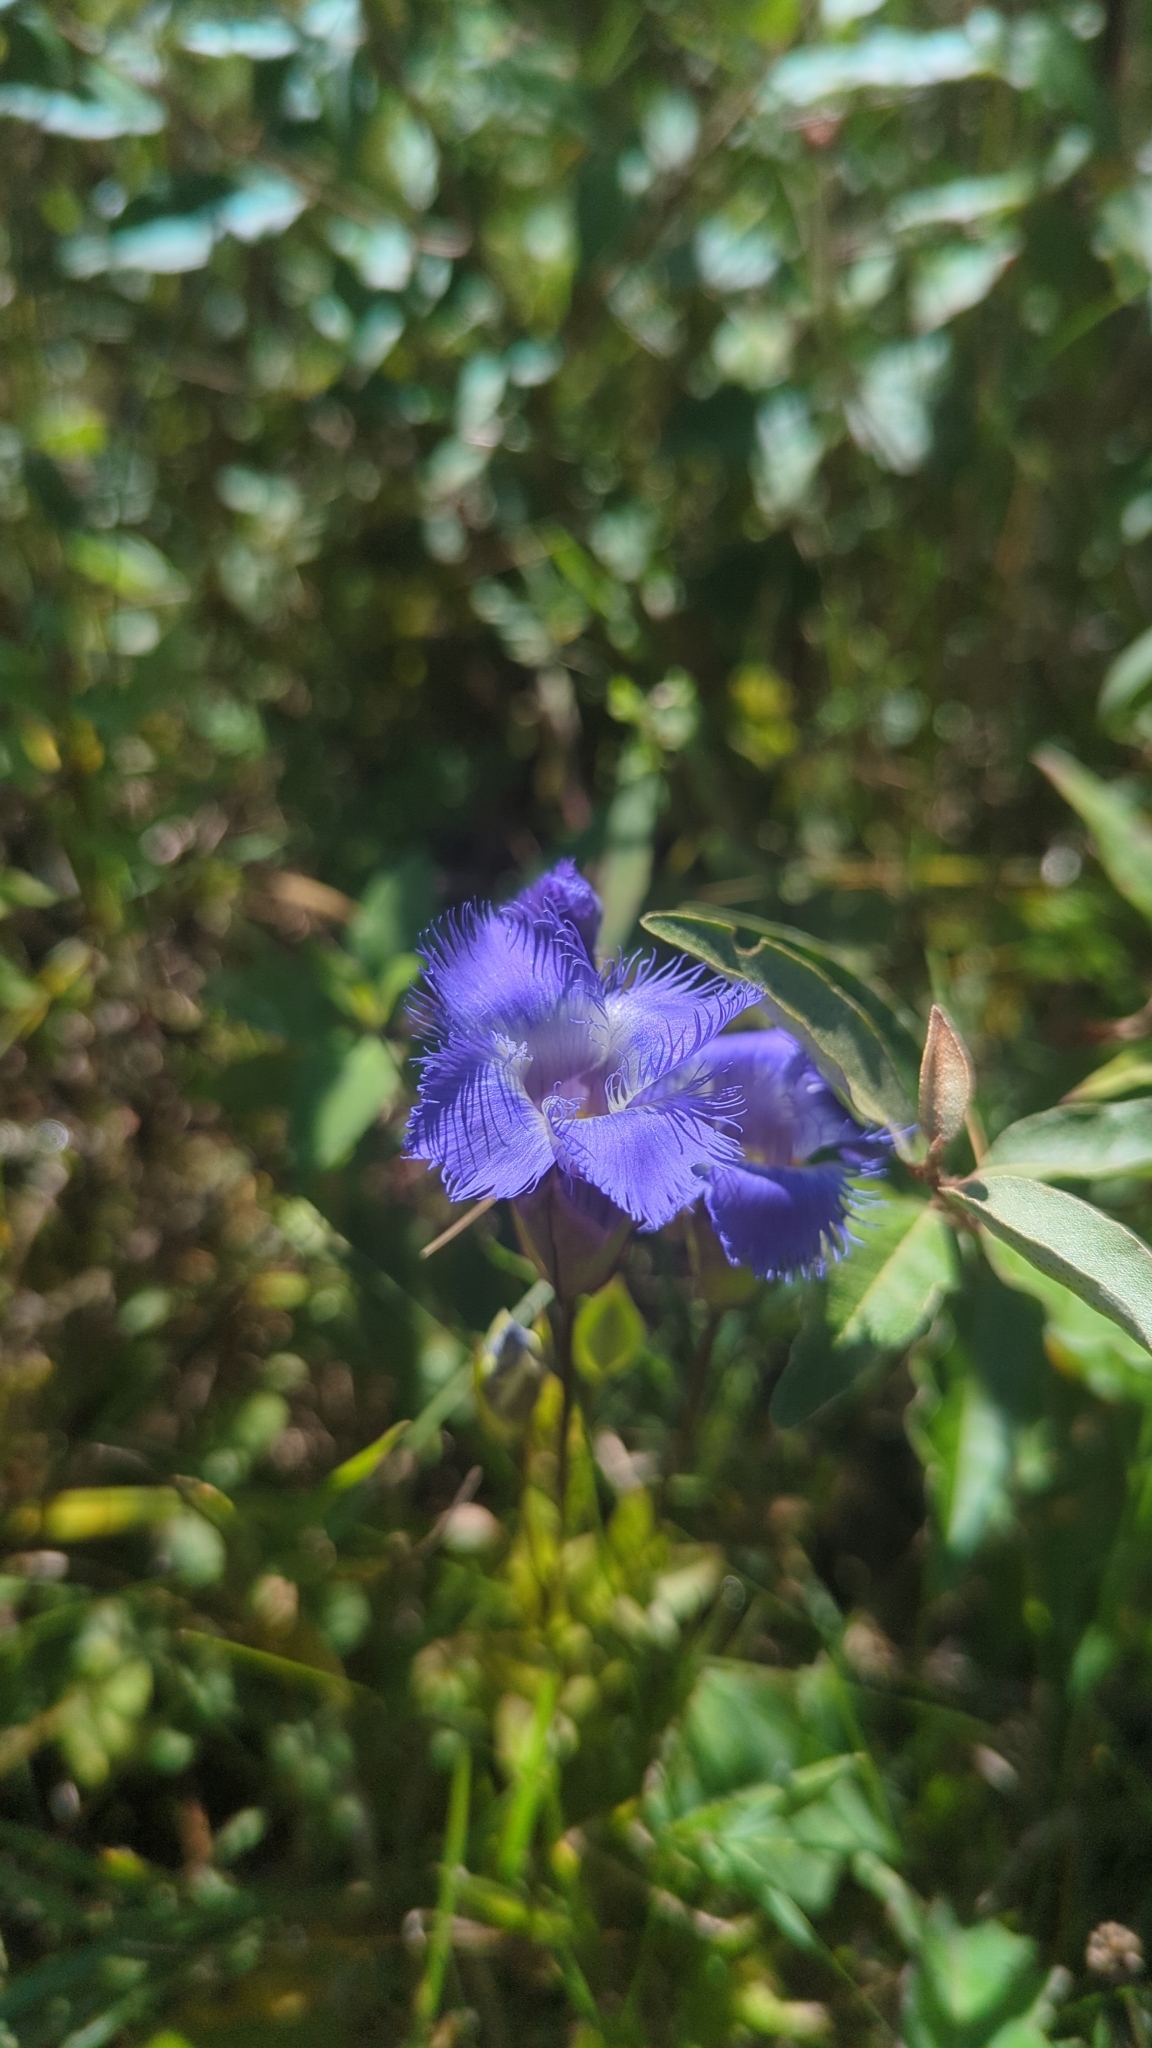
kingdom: Plantae
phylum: Tracheophyta
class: Magnoliopsida
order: Gentianales
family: Gentianaceae
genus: Gentianopsis
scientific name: Gentianopsis crinita
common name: Fringed-gentian
